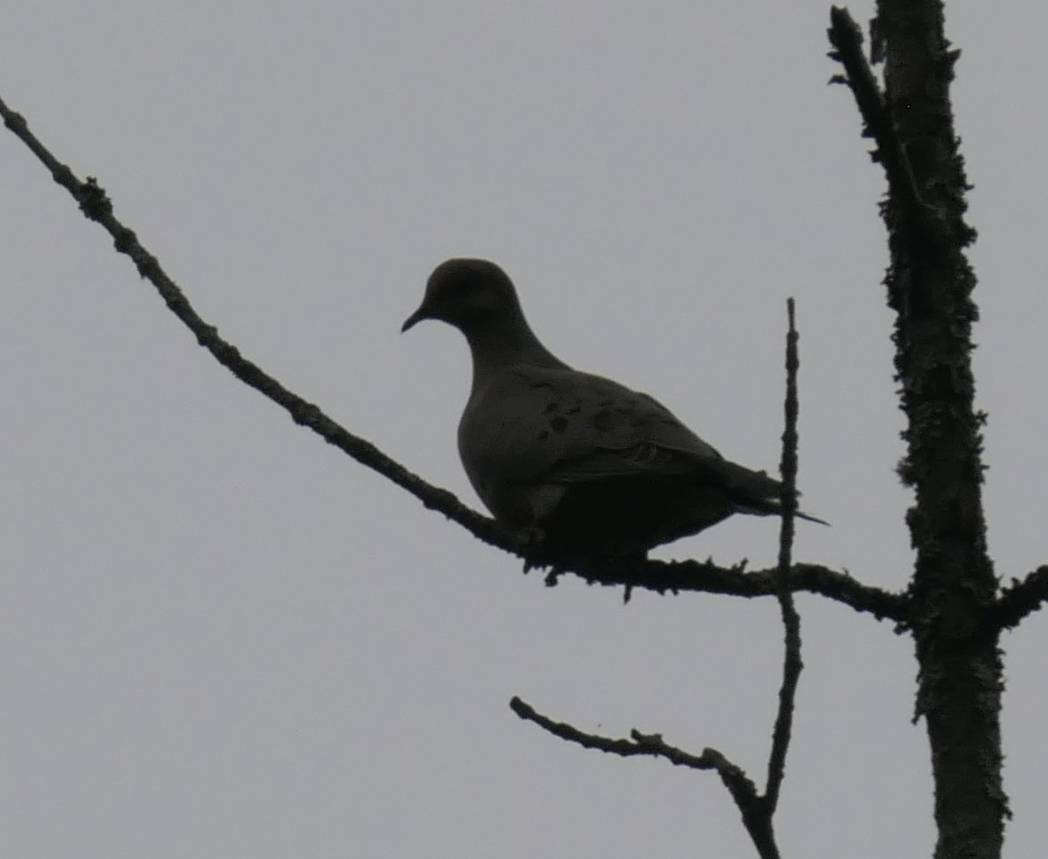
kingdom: Animalia
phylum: Chordata
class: Aves
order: Columbiformes
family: Columbidae
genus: Zenaida
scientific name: Zenaida macroura
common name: Mourning dove
